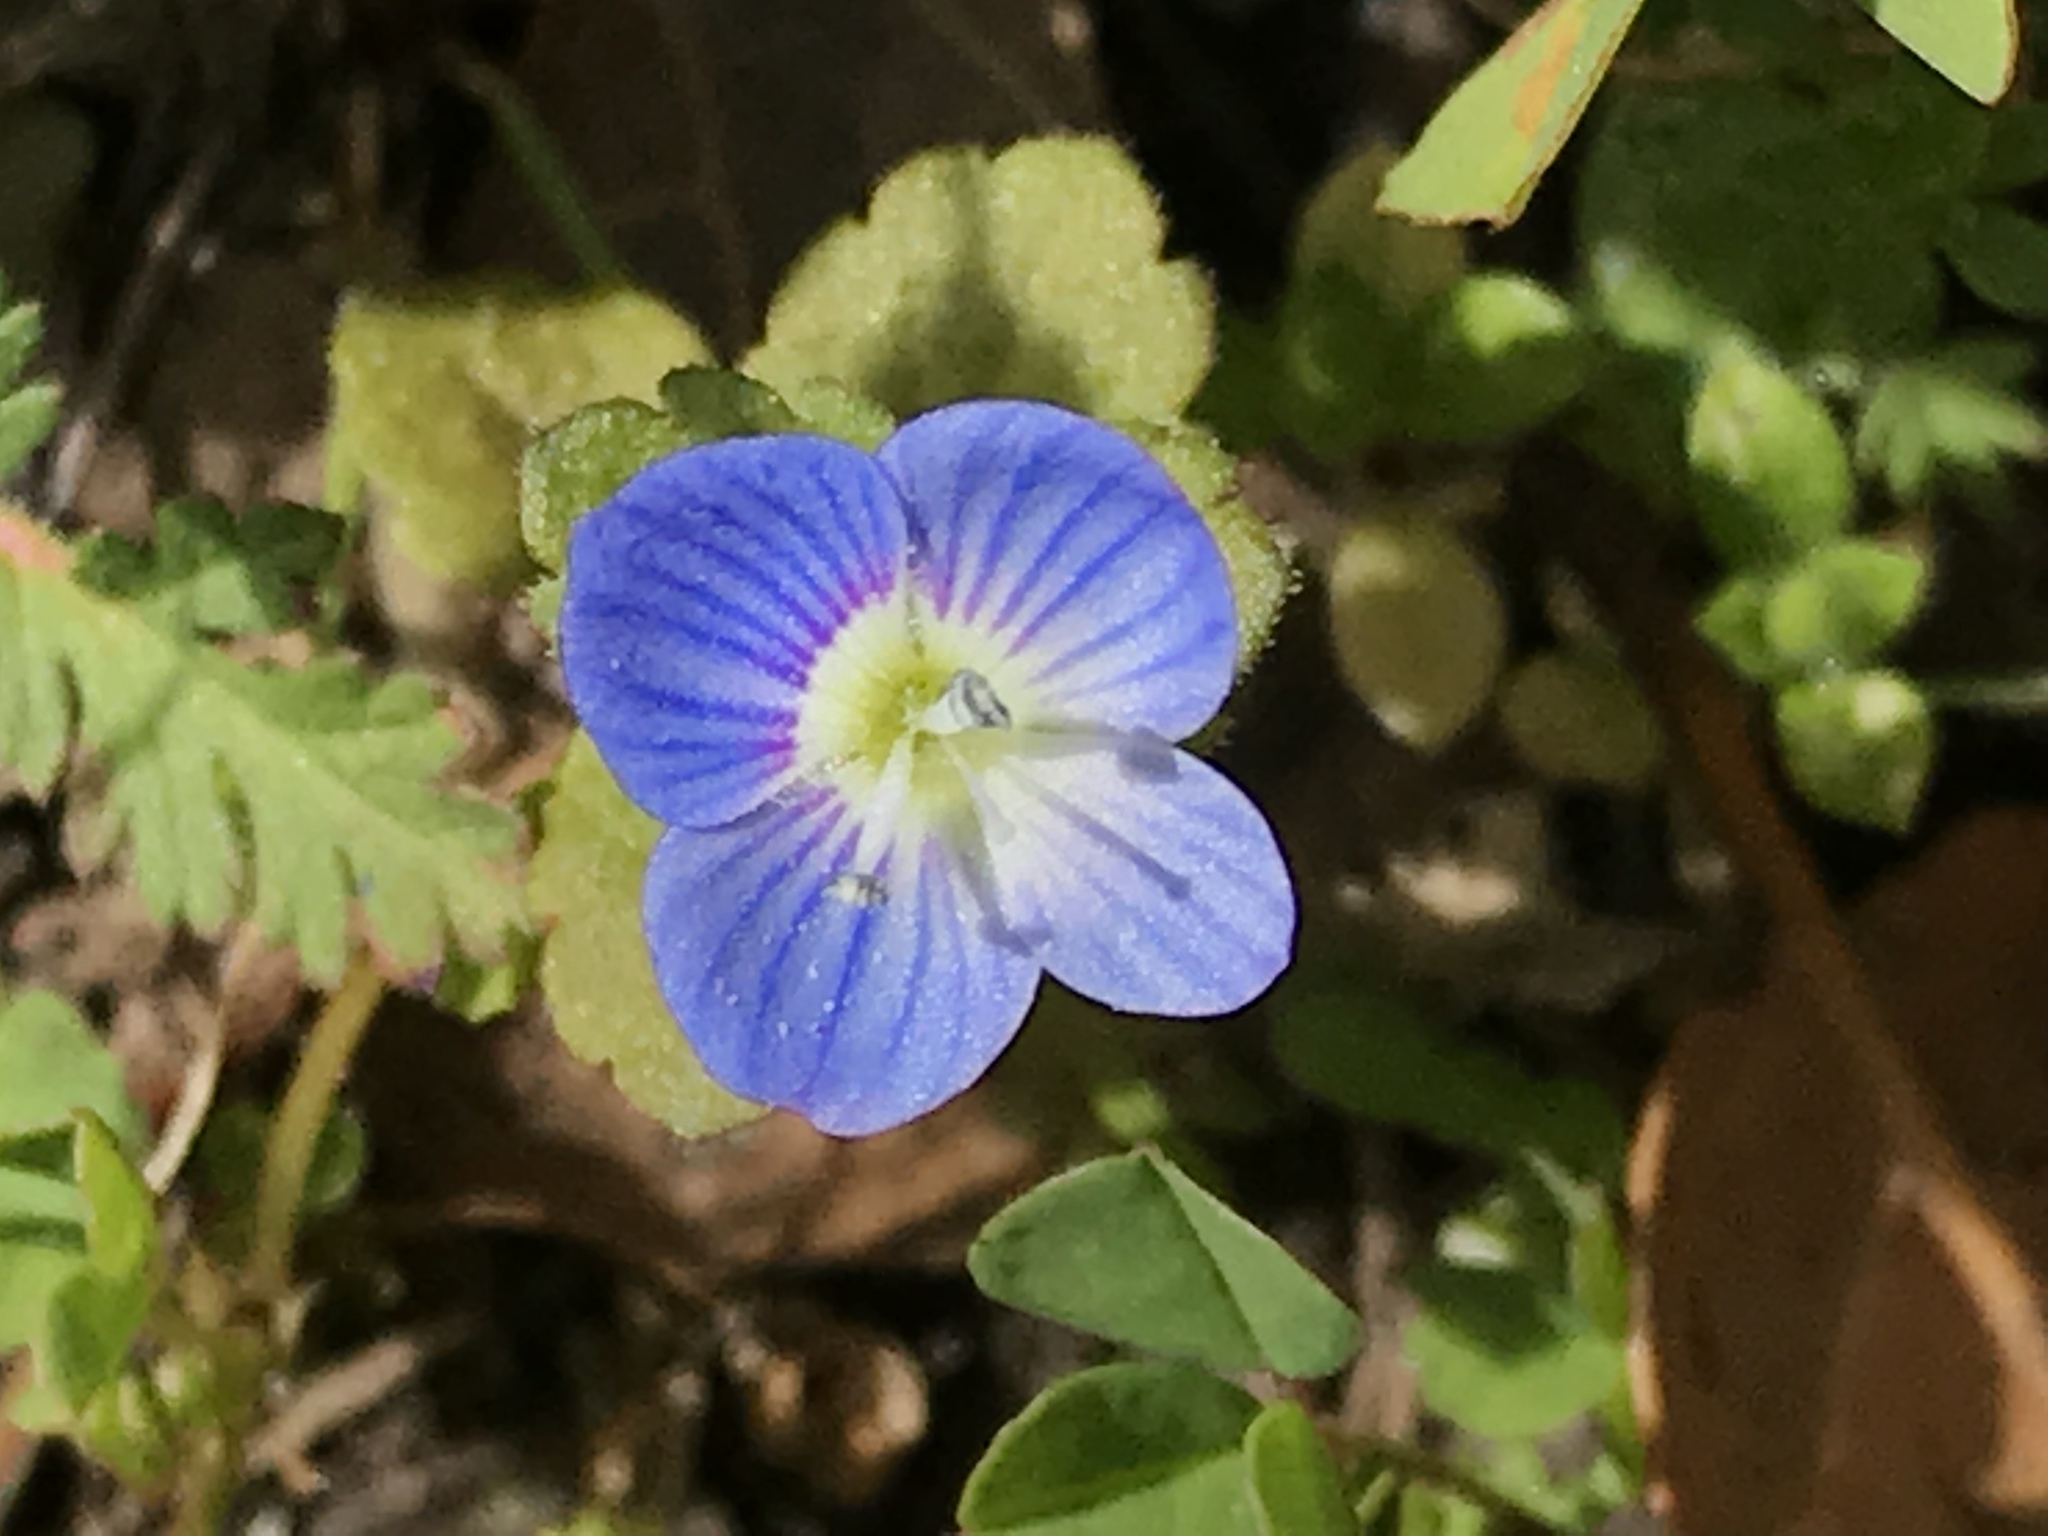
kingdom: Plantae
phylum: Tracheophyta
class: Magnoliopsida
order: Lamiales
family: Plantaginaceae
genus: Veronica
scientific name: Veronica persica
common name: Common field-speedwell
